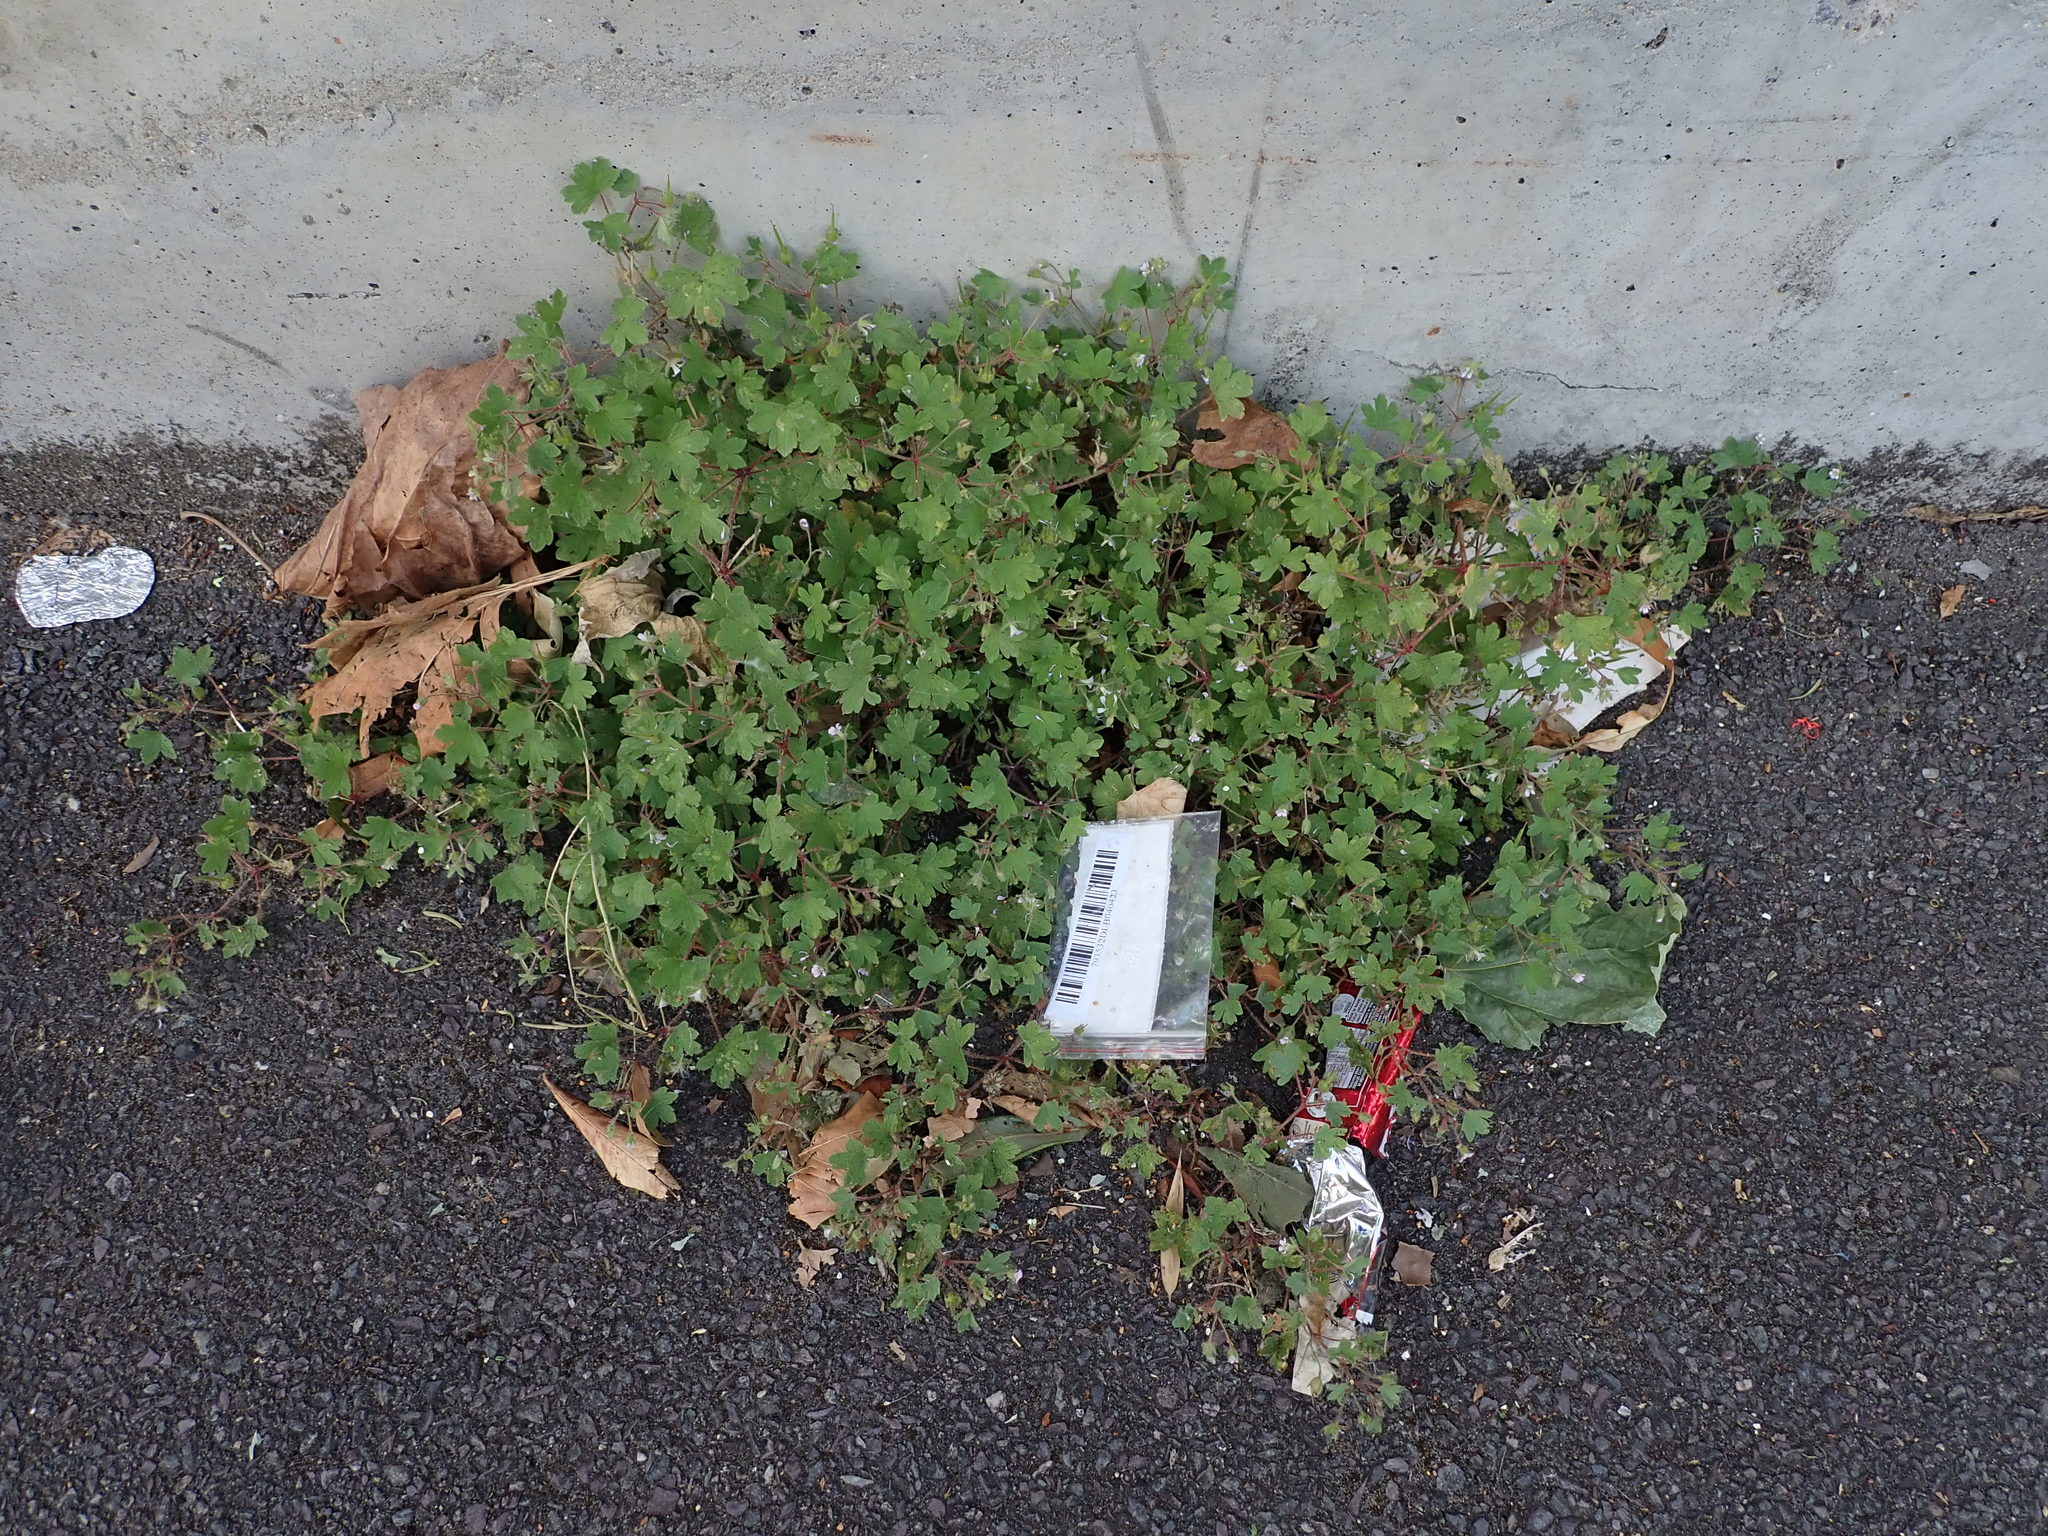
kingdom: Plantae
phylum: Tracheophyta
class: Magnoliopsida
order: Geraniales
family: Geraniaceae
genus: Geranium
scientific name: Geranium rotundifolium
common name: Round-leaved crane's-bill
